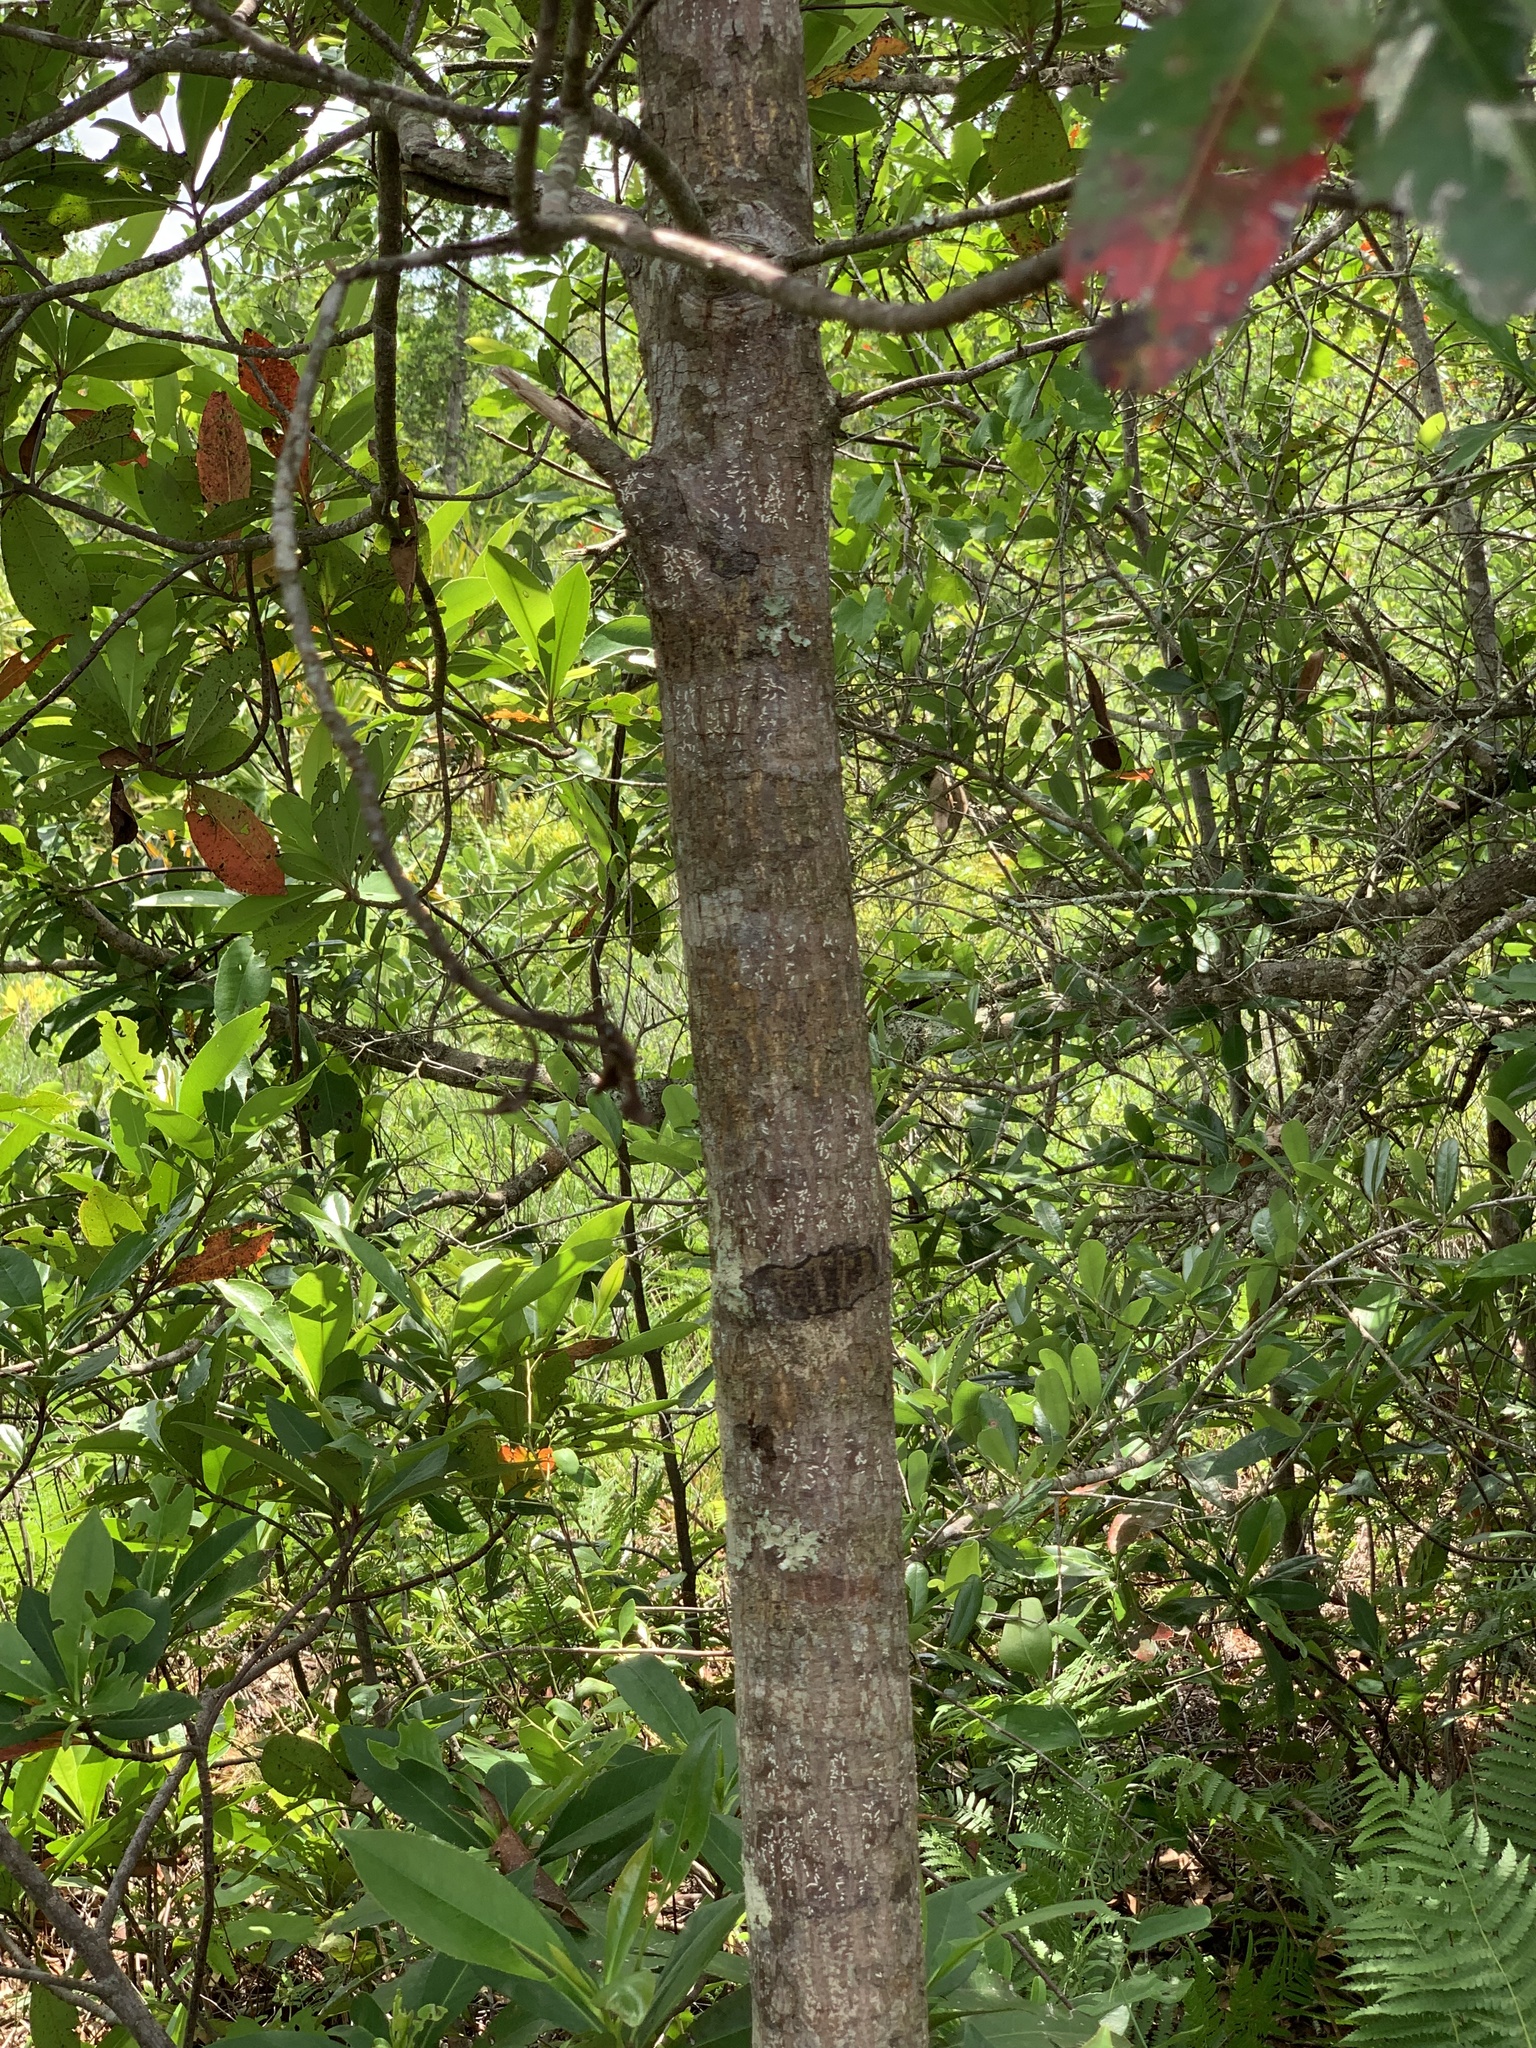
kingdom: Plantae
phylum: Tracheophyta
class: Magnoliopsida
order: Ericales
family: Theaceae
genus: Gordonia
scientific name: Gordonia lasianthus
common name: Loblolly bay
